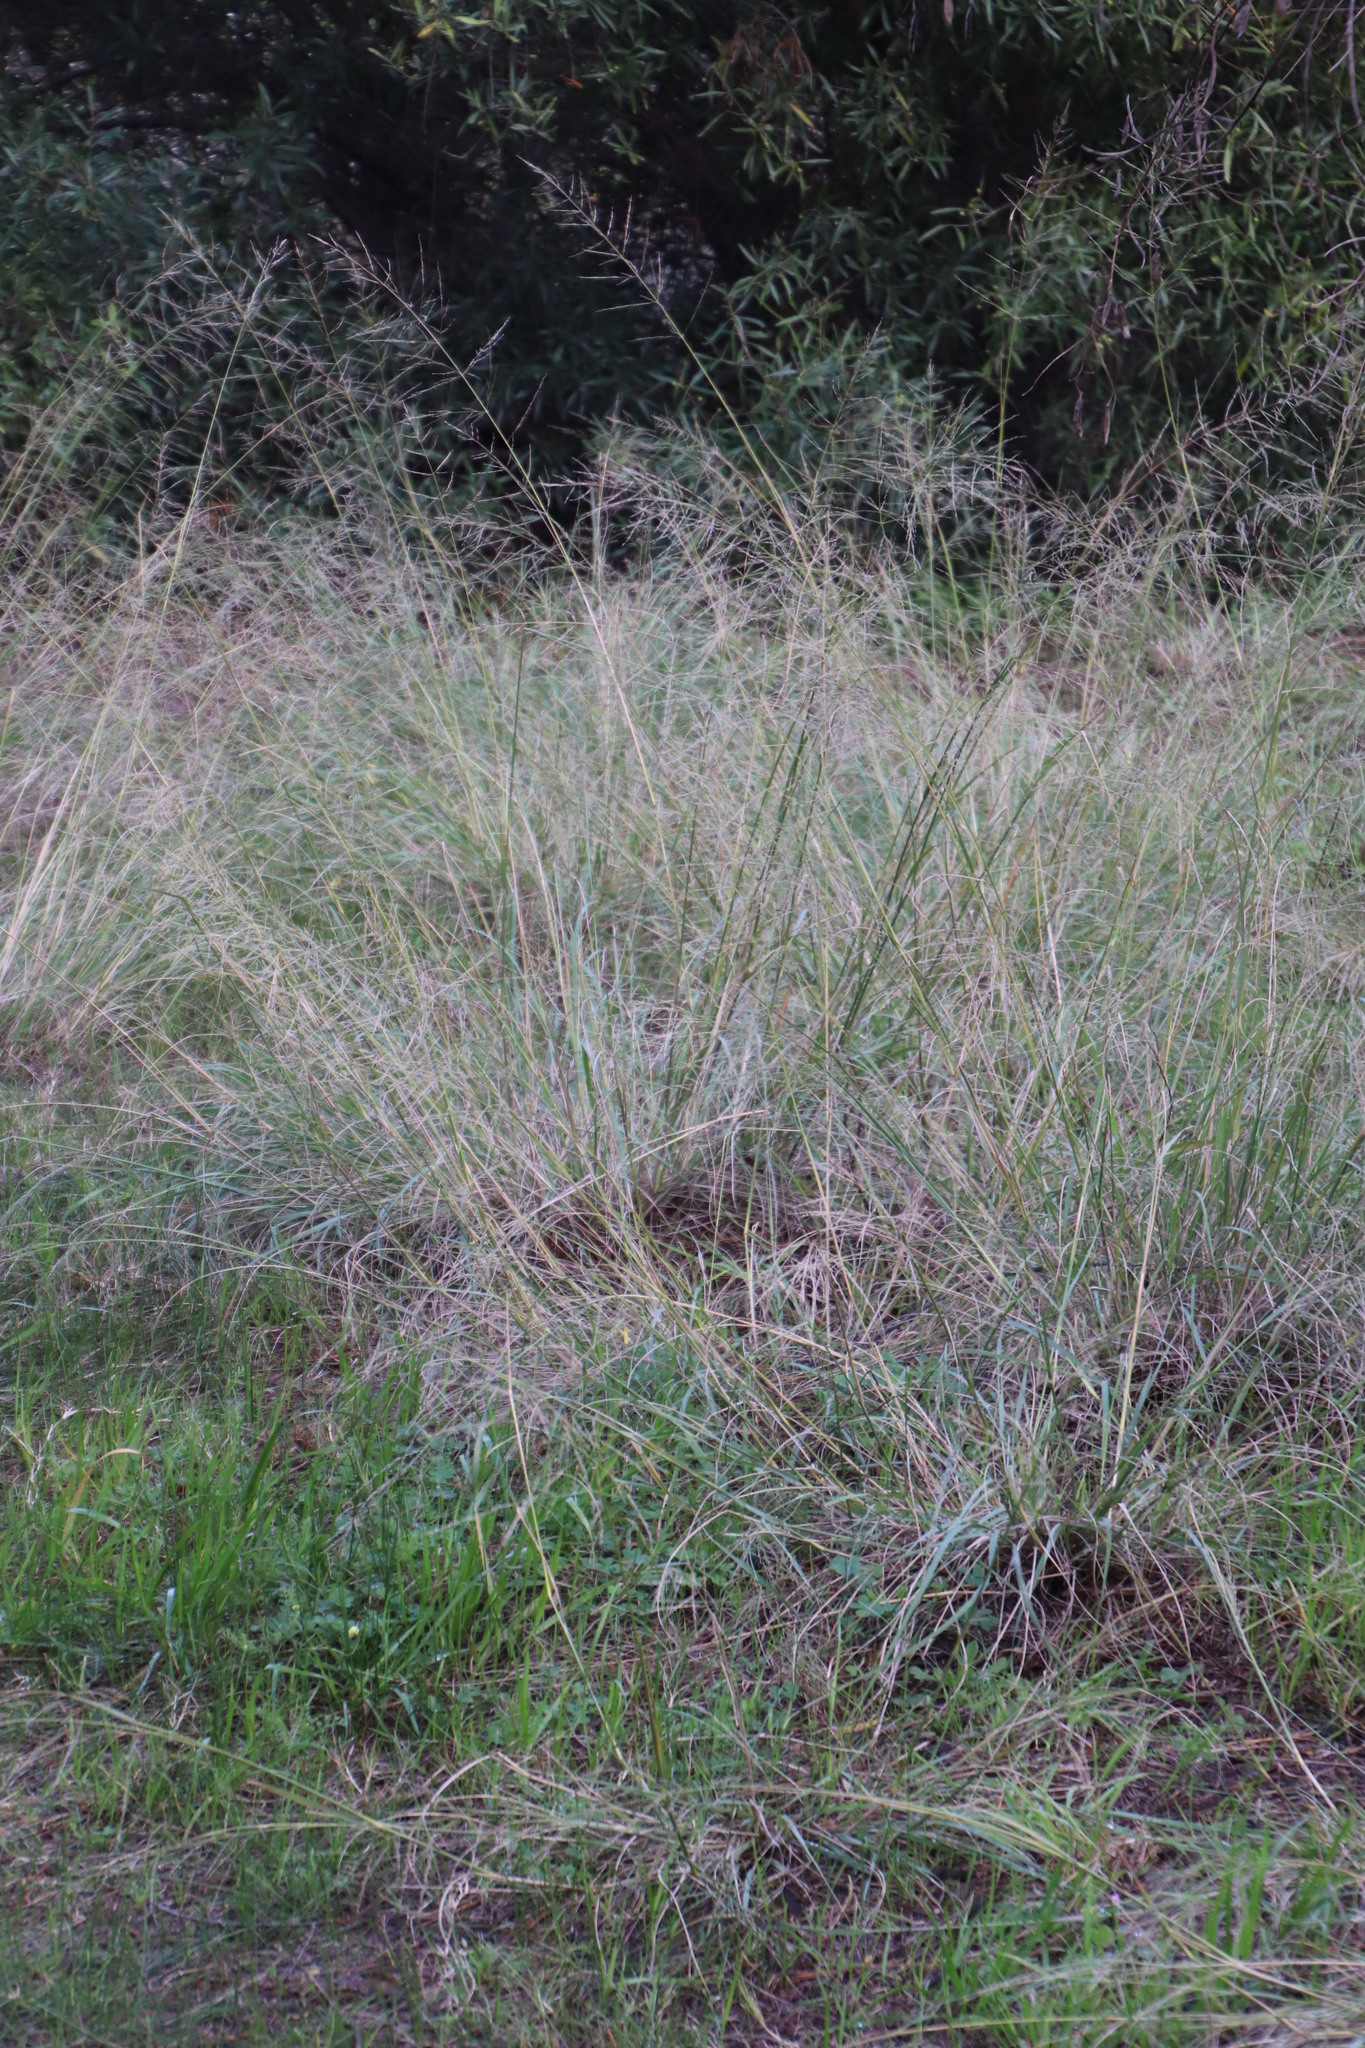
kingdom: Plantae
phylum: Tracheophyta
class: Liliopsida
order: Poales
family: Poaceae
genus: Eragrostis
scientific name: Eragrostis curvula
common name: African love-grass
